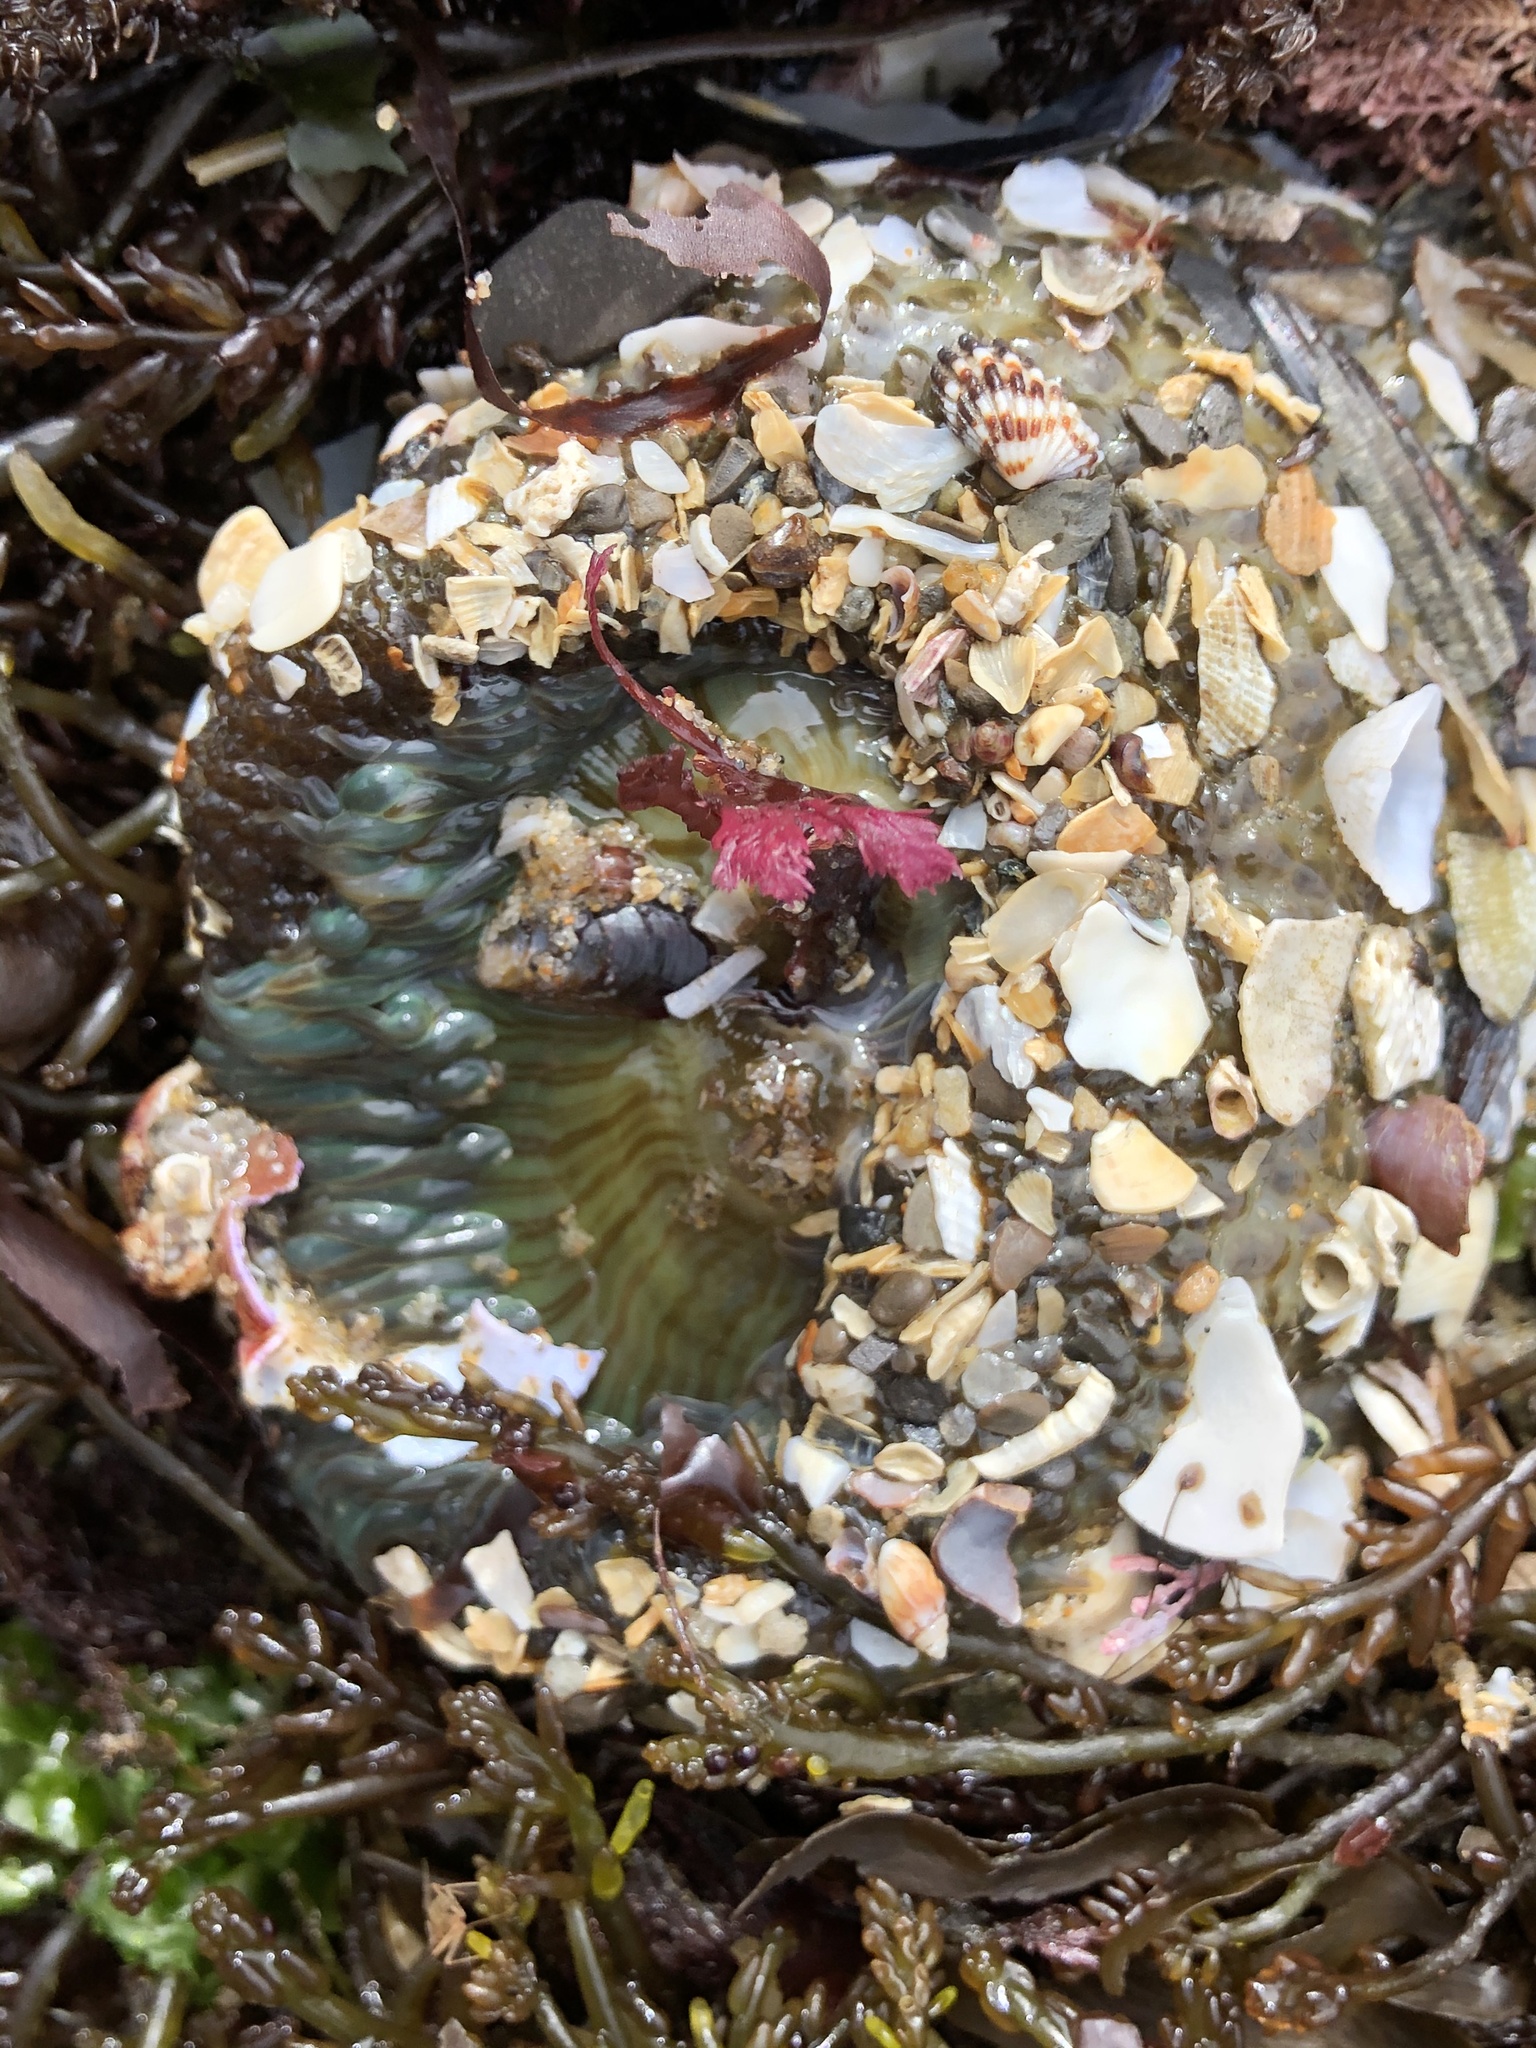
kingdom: Animalia
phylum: Cnidaria
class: Anthozoa
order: Actiniaria
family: Actiniidae
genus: Anthopleura
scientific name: Anthopleura sola
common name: Sun anemone
